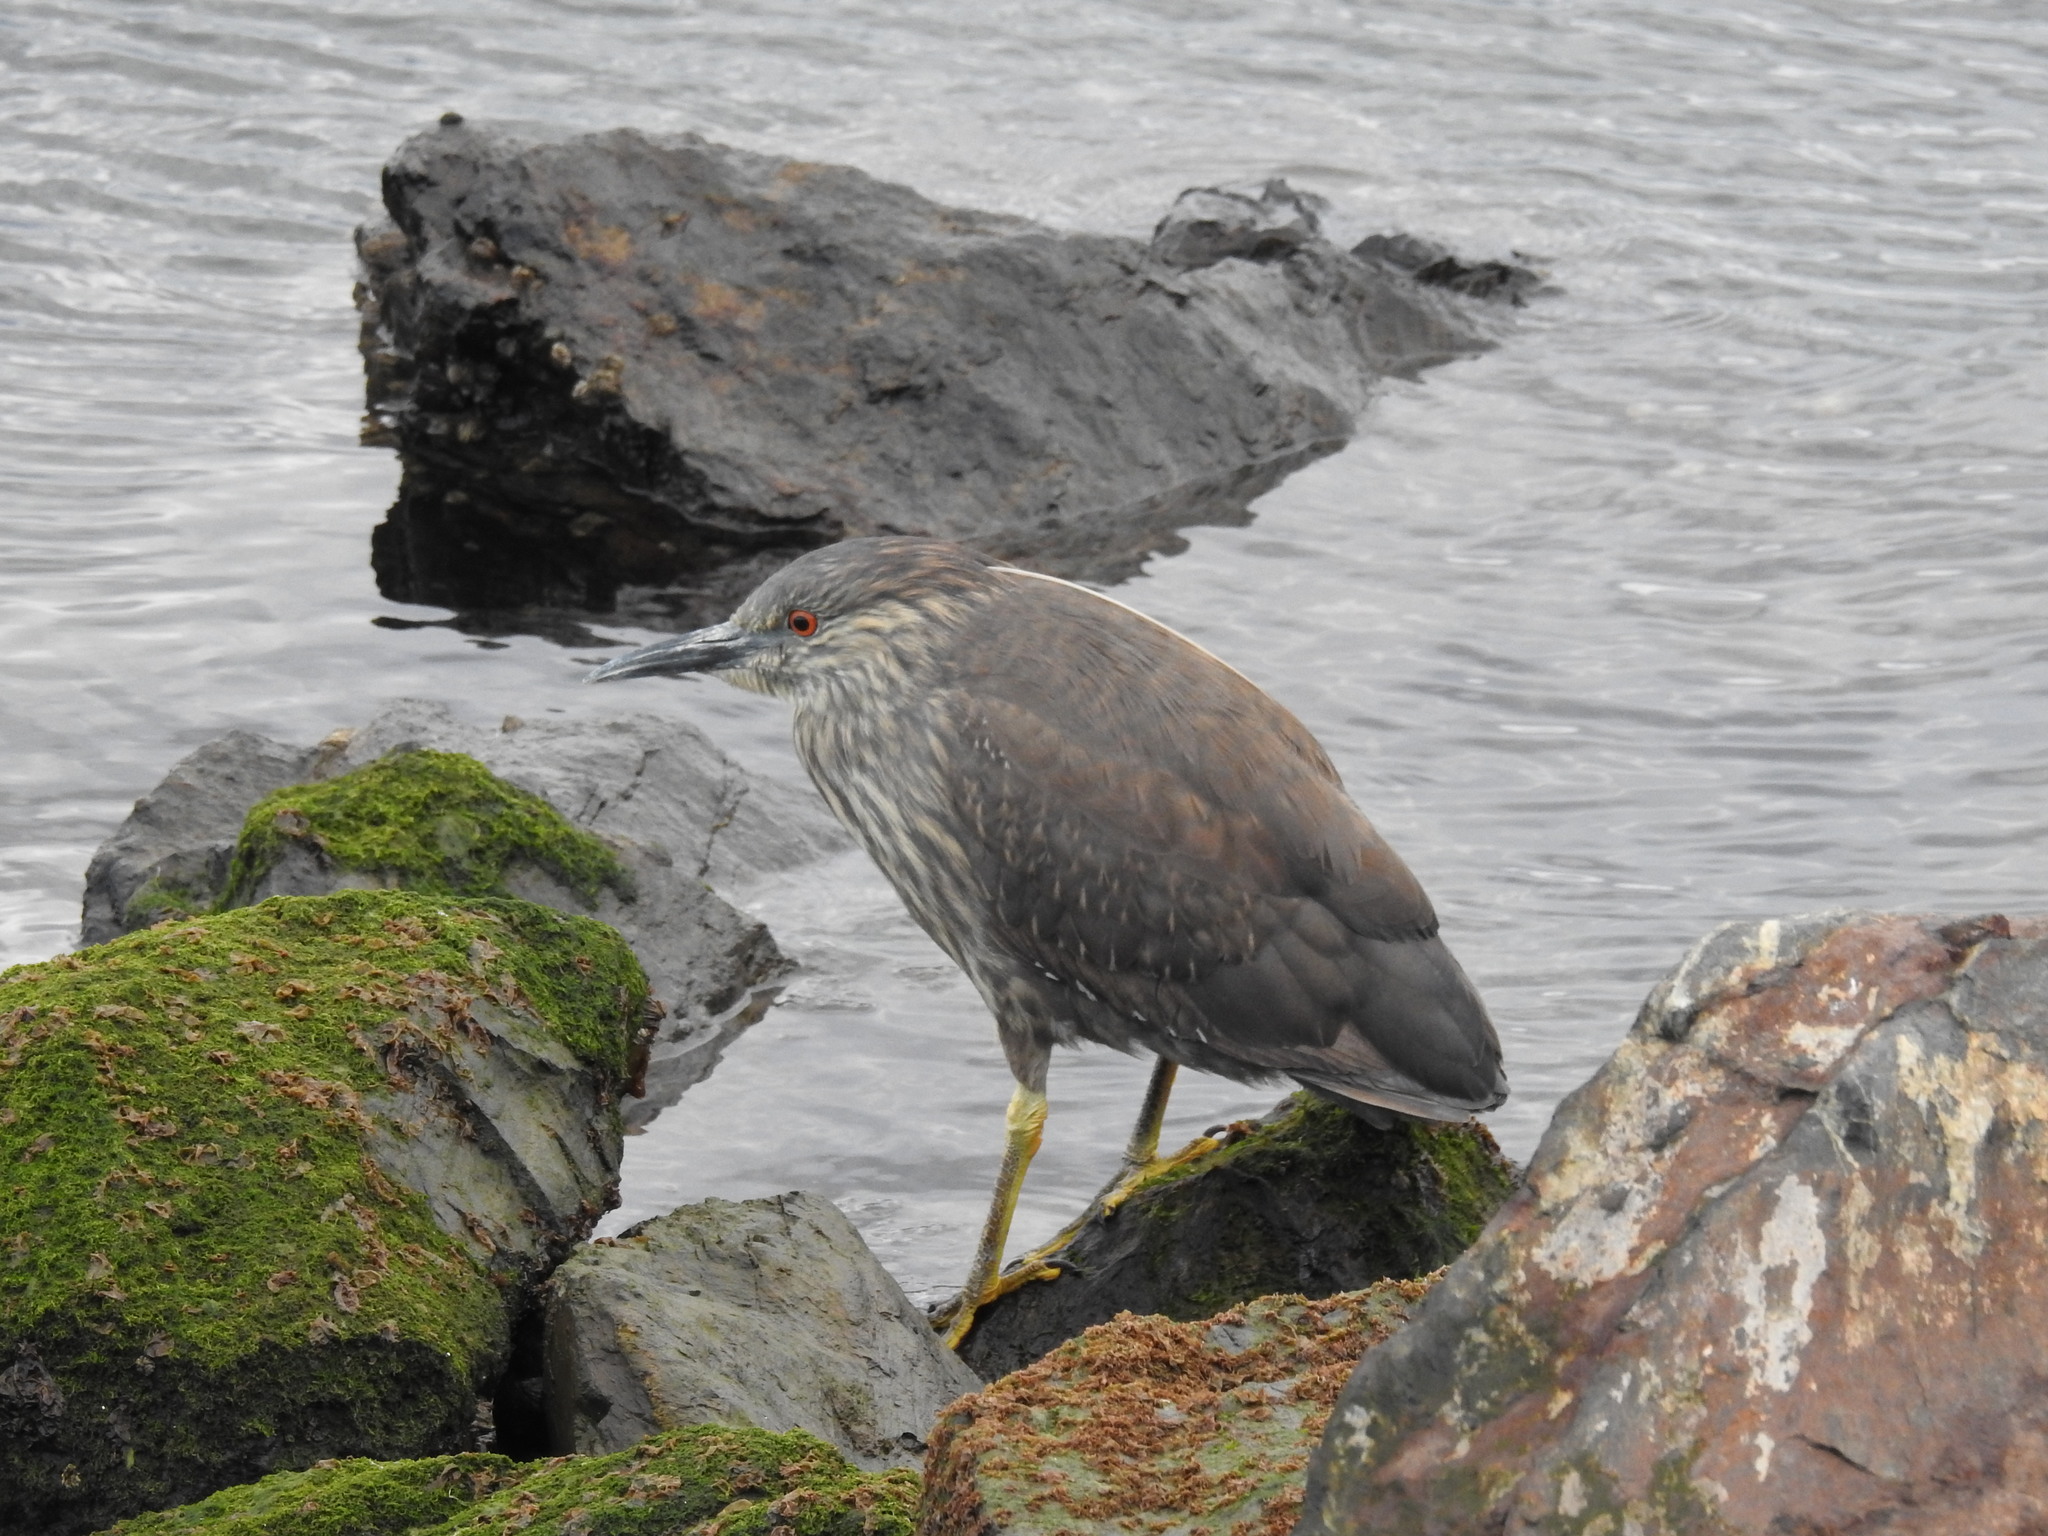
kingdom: Animalia
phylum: Chordata
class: Aves
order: Pelecaniformes
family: Ardeidae
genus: Nycticorax
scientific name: Nycticorax nycticorax
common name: Black-crowned night heron
